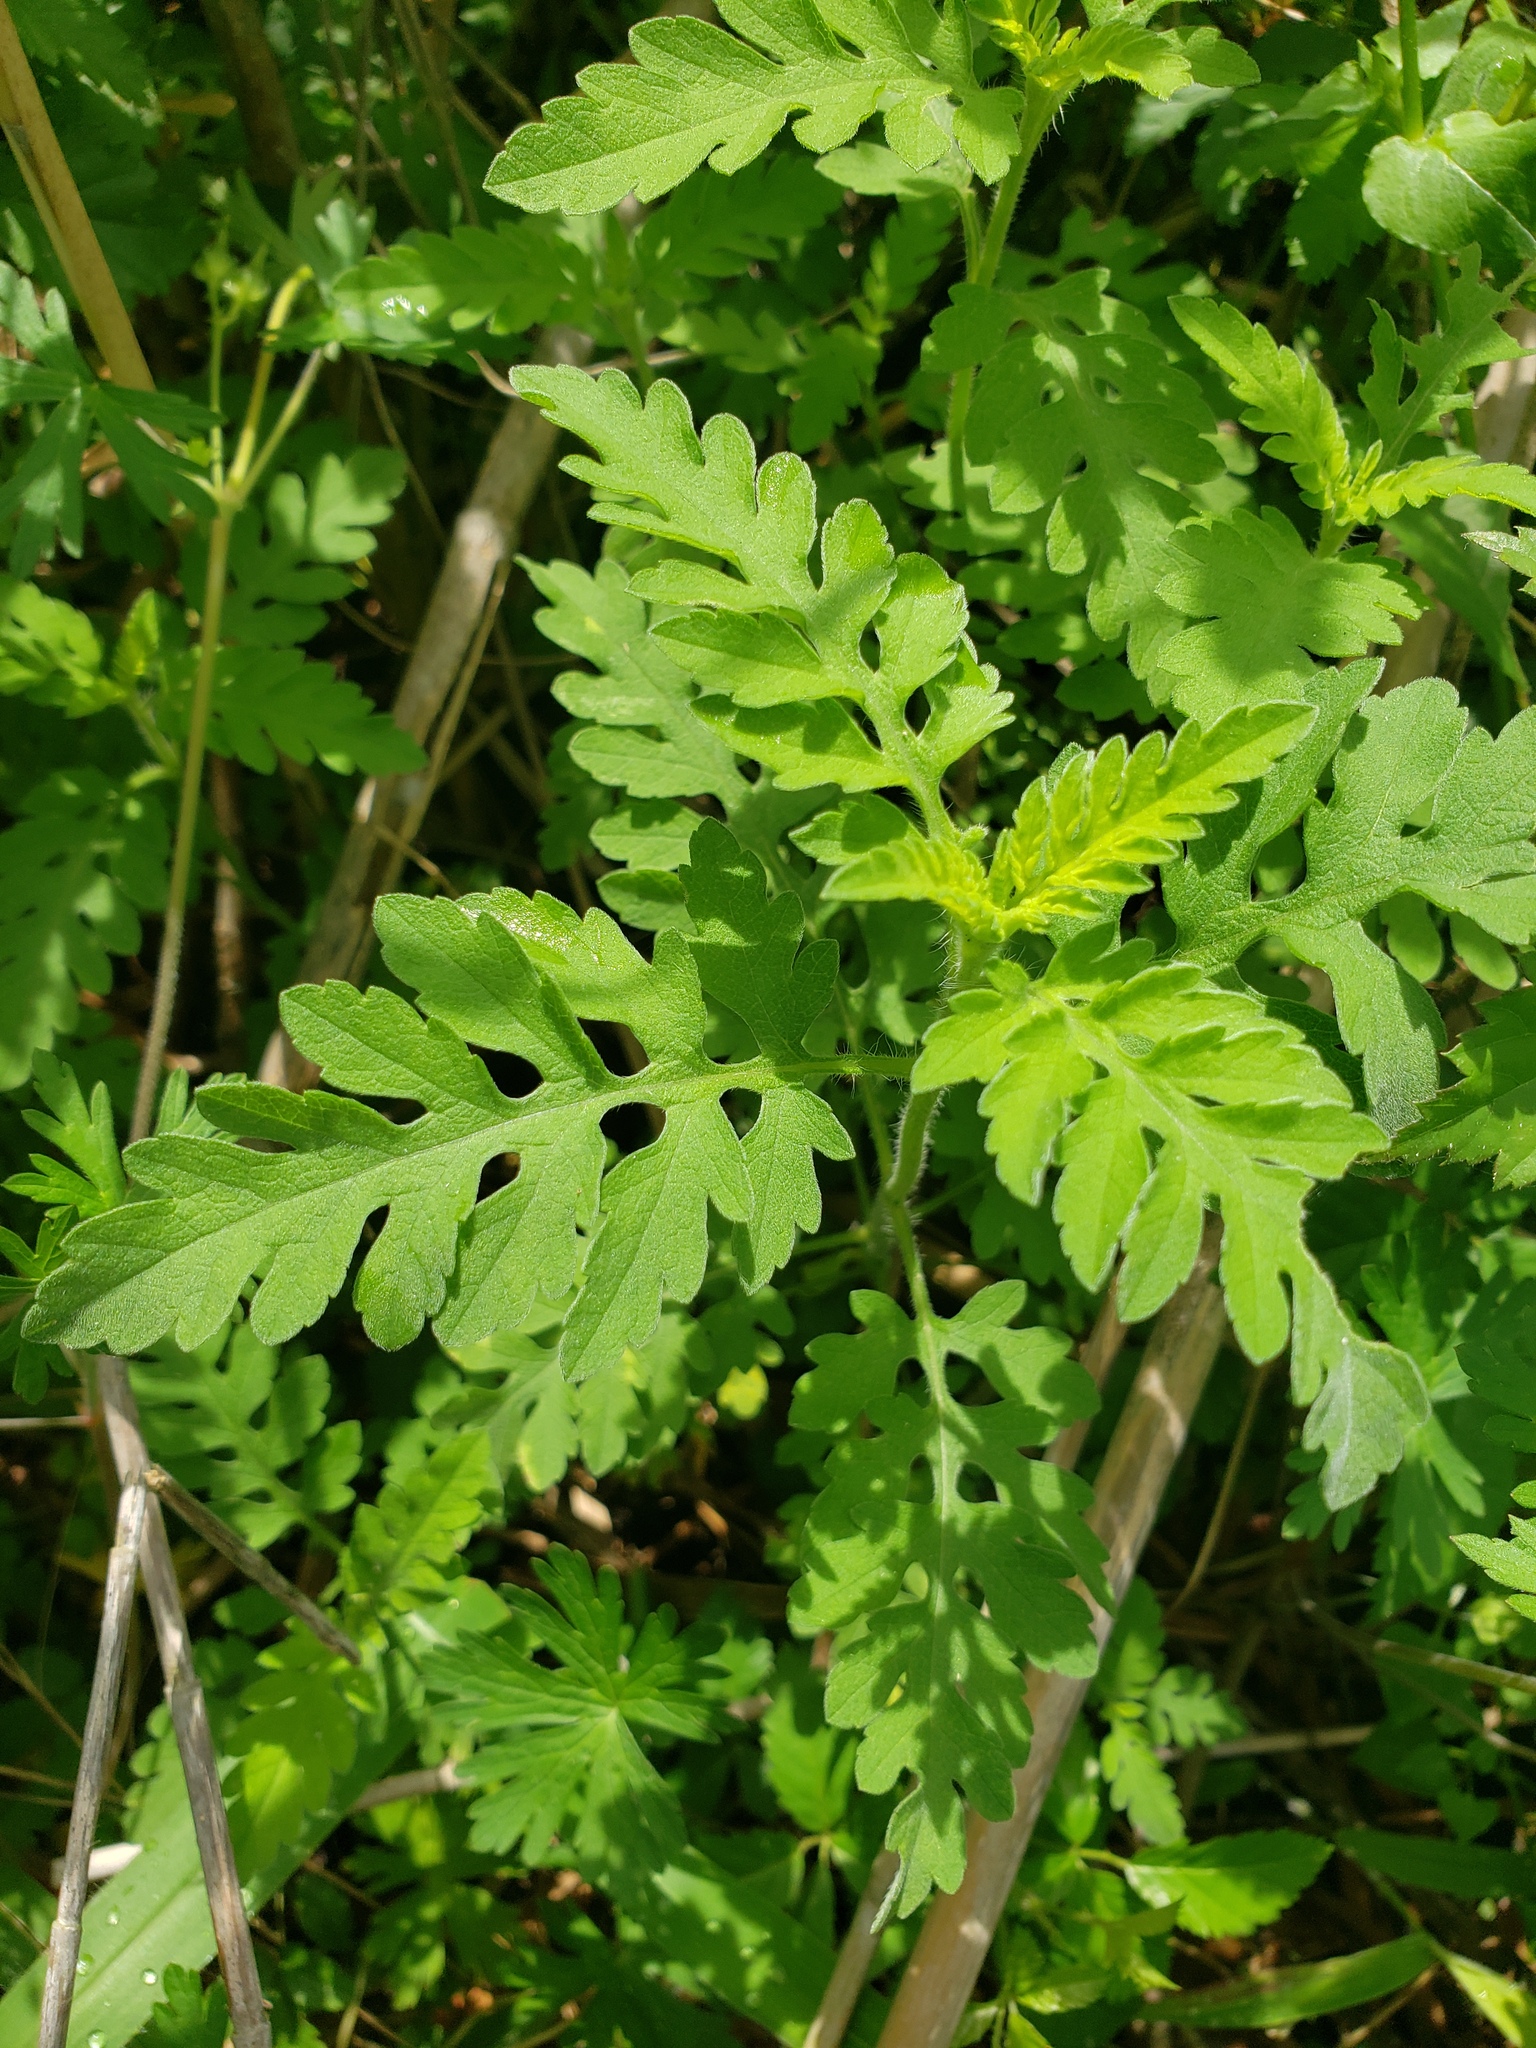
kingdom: Plantae
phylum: Tracheophyta
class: Magnoliopsida
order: Asterales
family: Asteraceae
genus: Ambrosia
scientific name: Ambrosia artemisiifolia
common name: Annual ragweed
